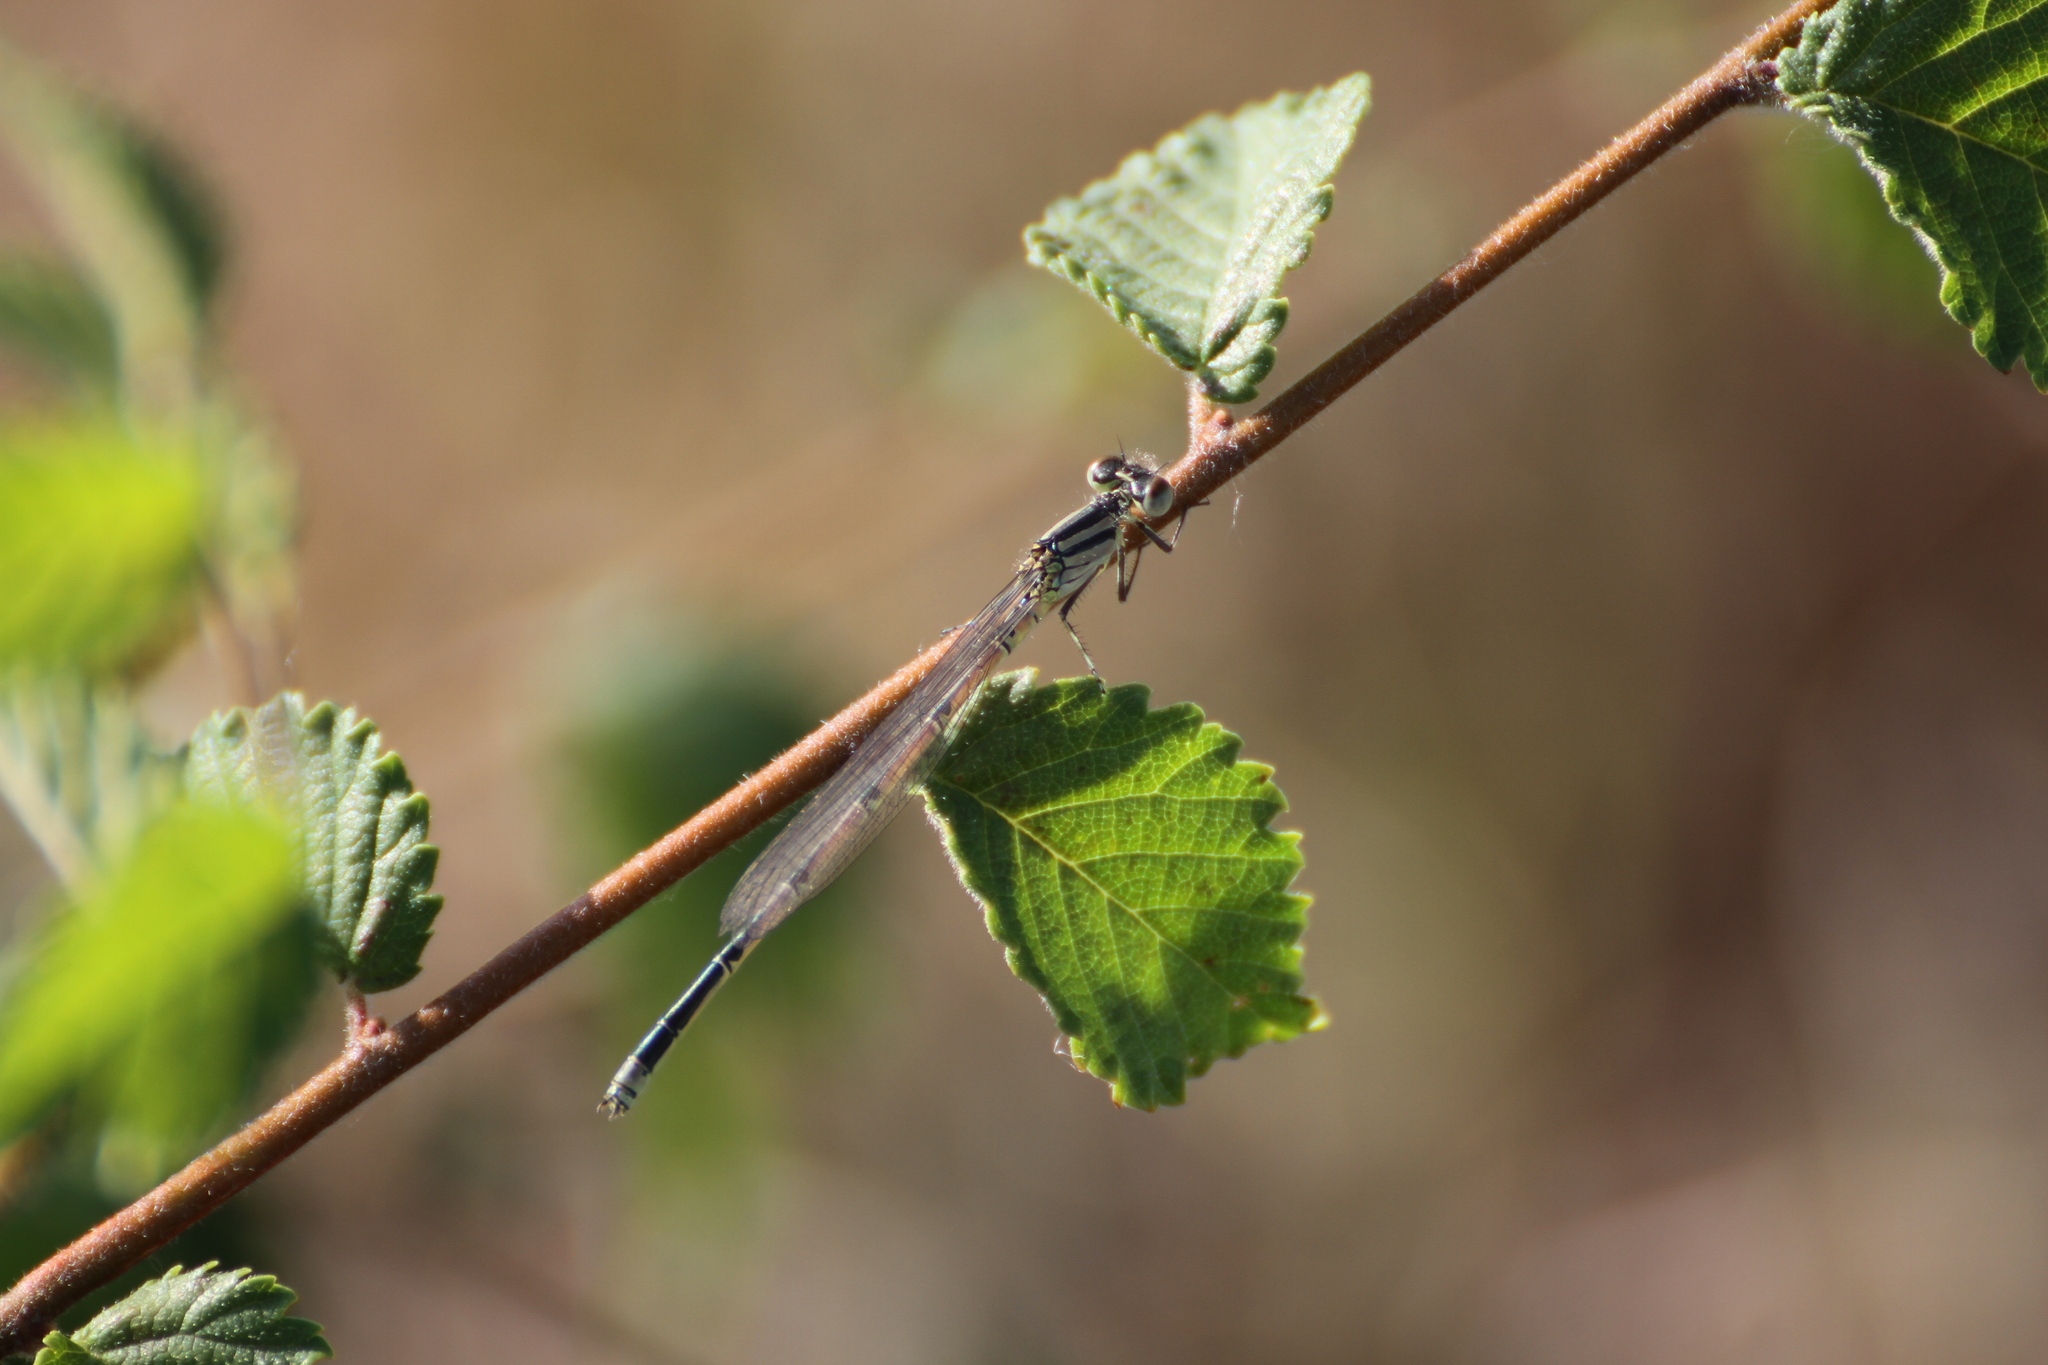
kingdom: Animalia
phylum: Arthropoda
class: Insecta
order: Odonata
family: Coenagrionidae
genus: Erythromma
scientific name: Erythromma lindenii
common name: Blue-eye
